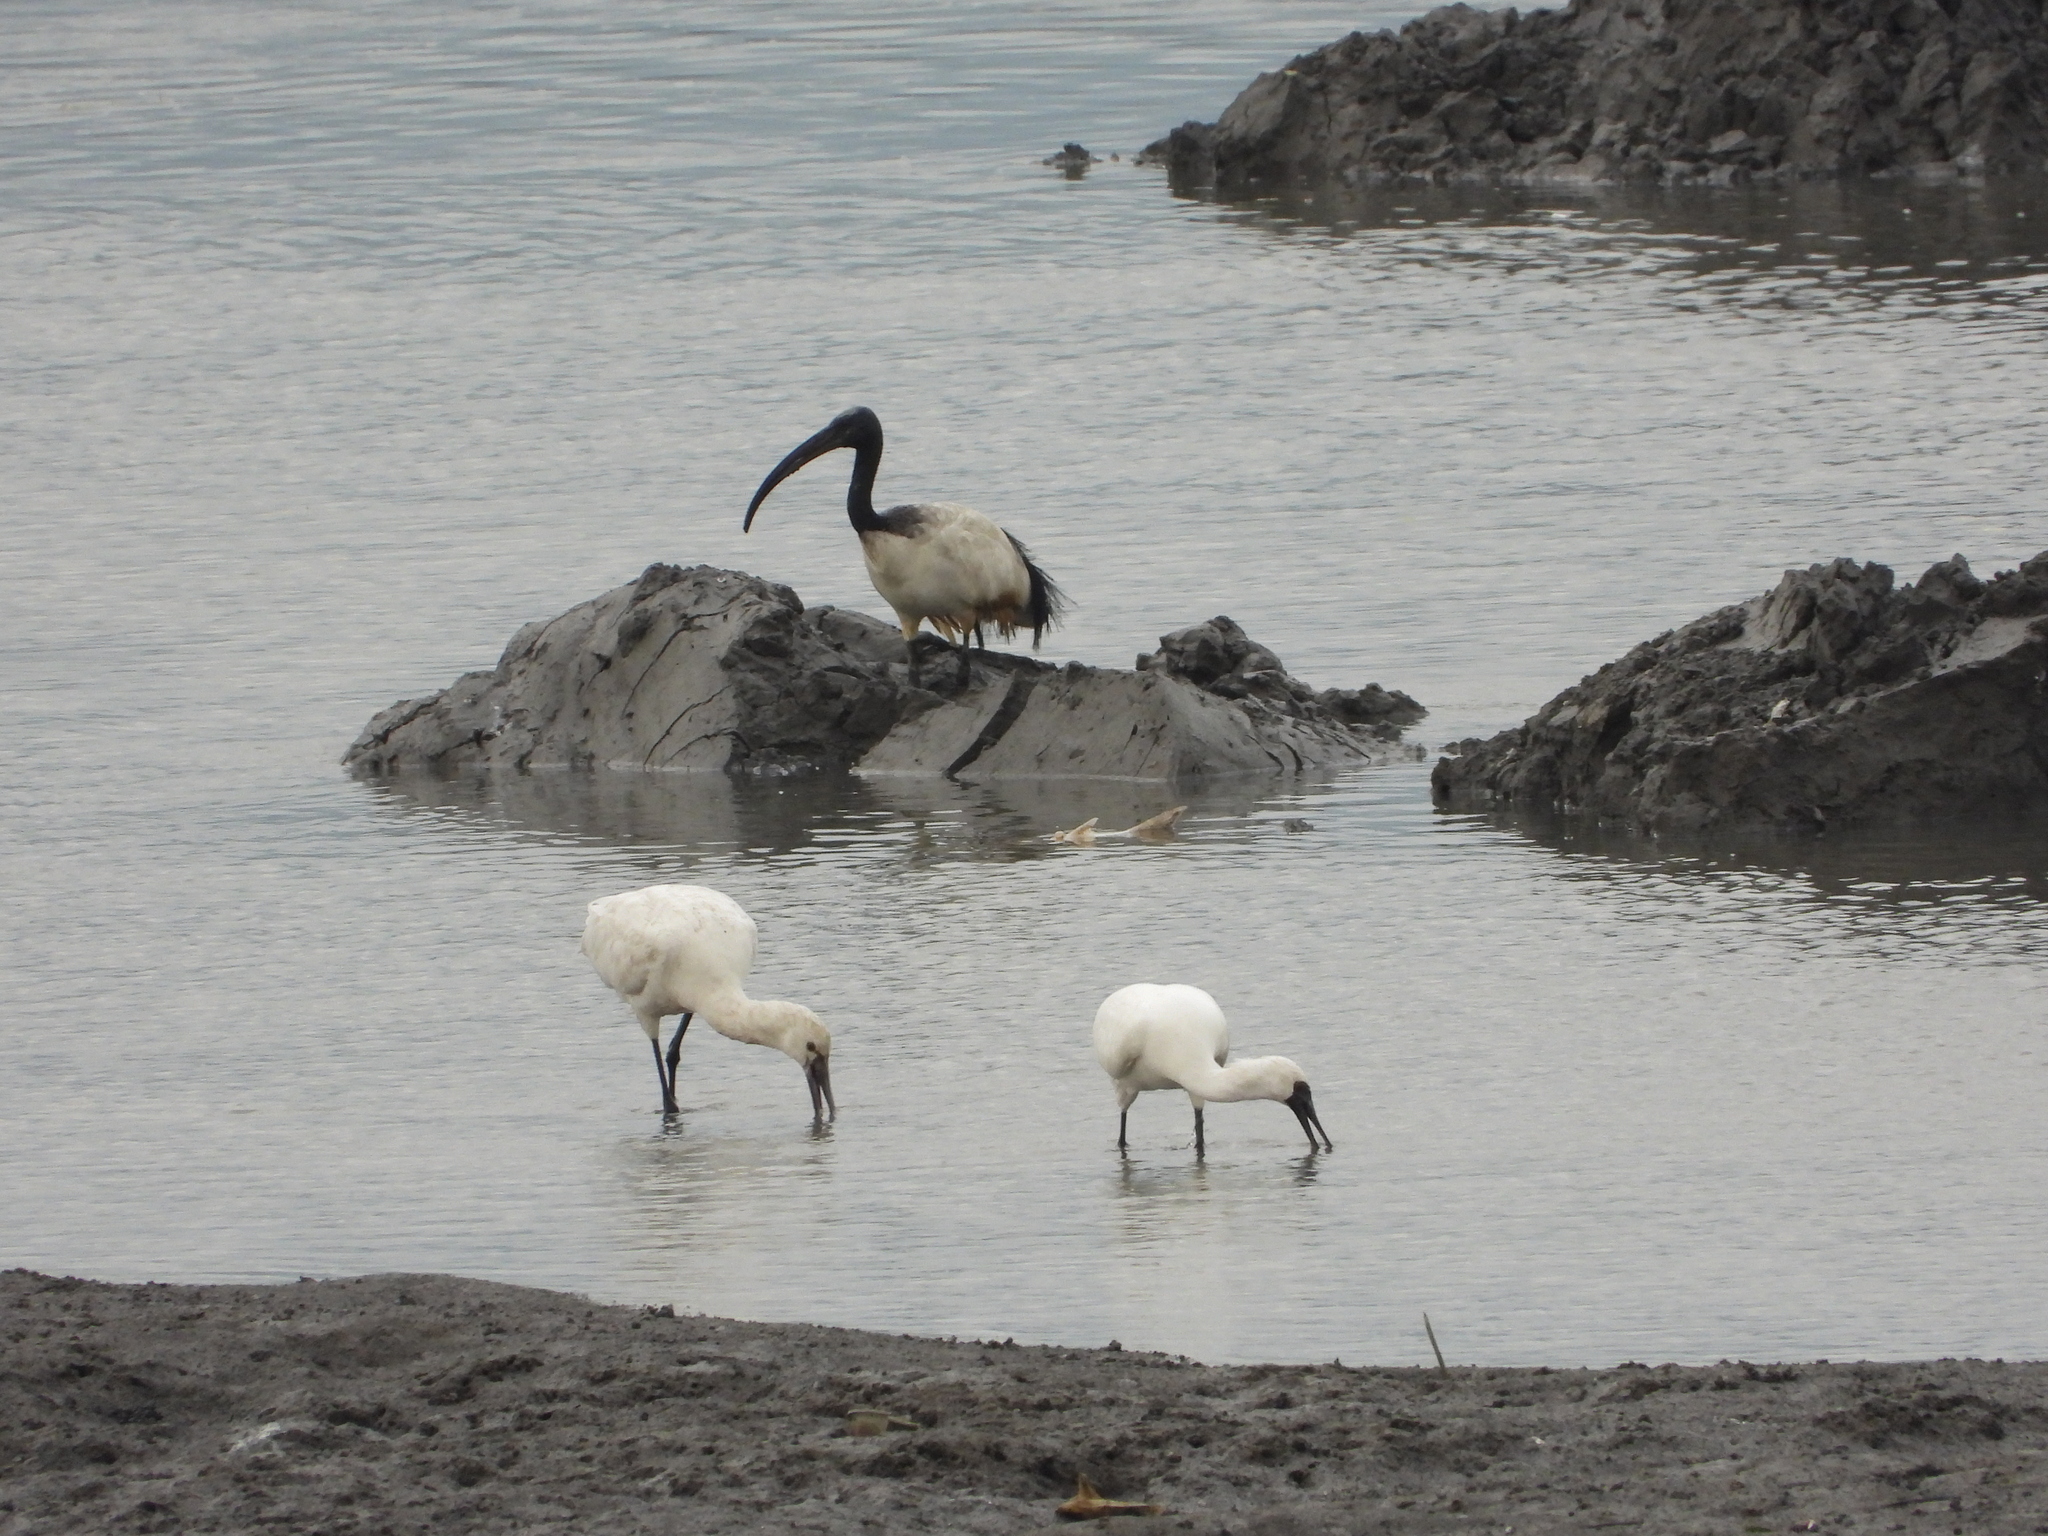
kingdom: Animalia
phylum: Chordata
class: Aves
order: Pelecaniformes
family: Threskiornithidae
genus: Threskiornis
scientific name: Threskiornis aethiopicus
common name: Sacred ibis
